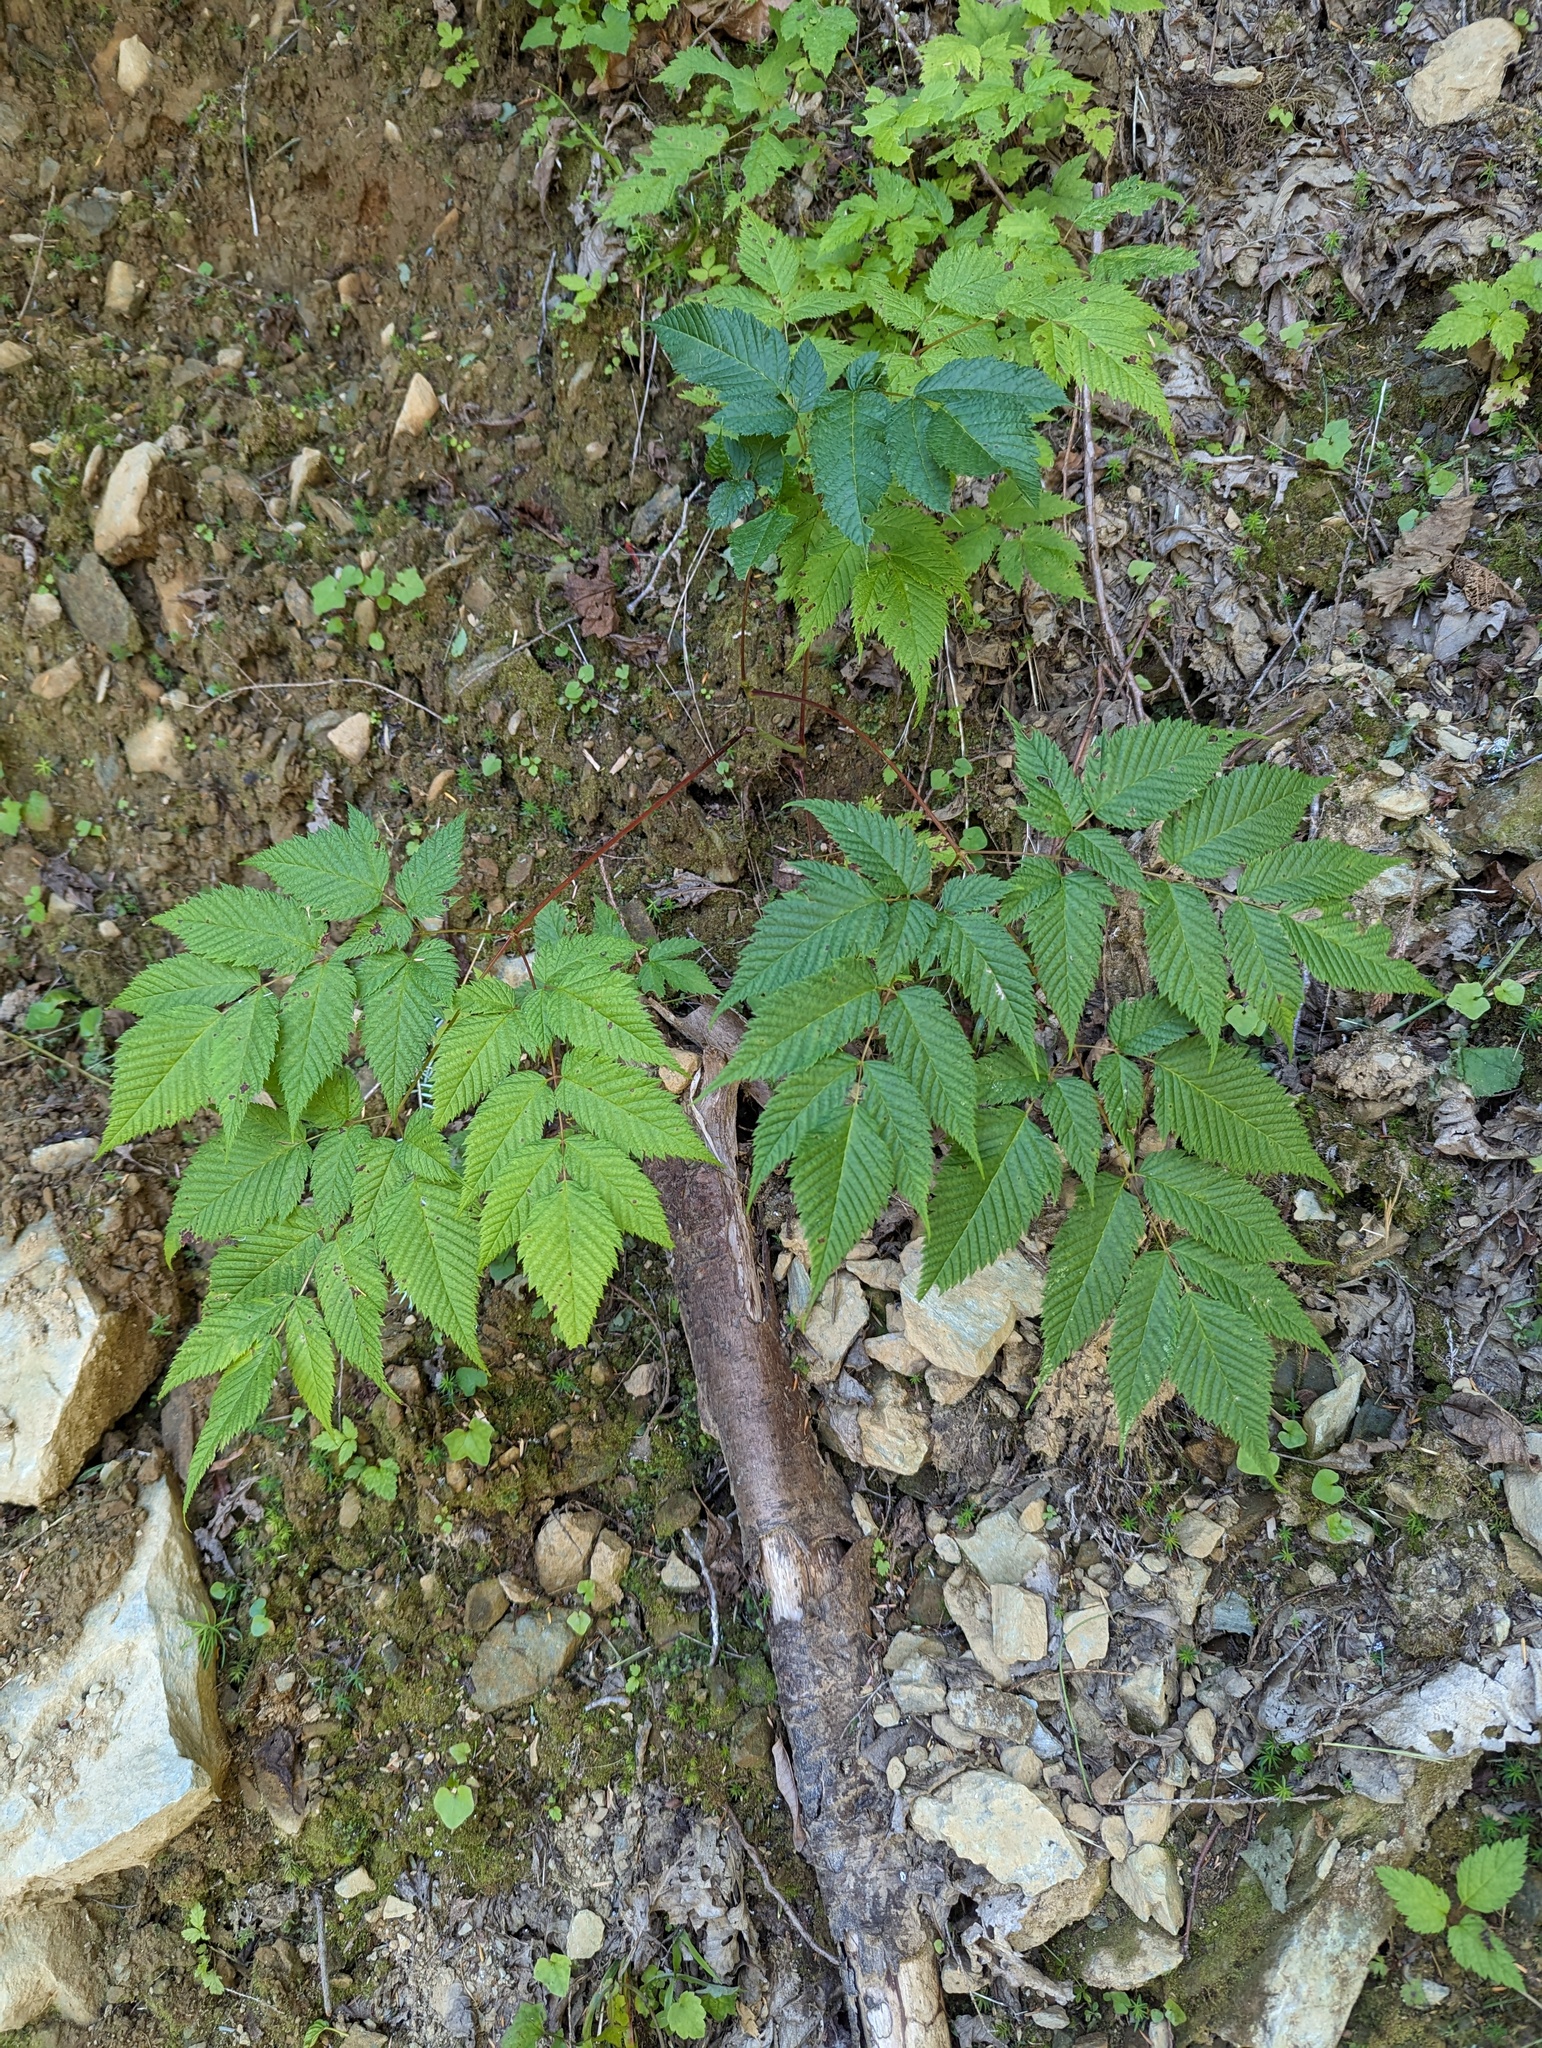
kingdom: Plantae
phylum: Tracheophyta
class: Magnoliopsida
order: Rosales
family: Rosaceae
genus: Aruncus
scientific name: Aruncus dioicus
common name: Buck's-beard
